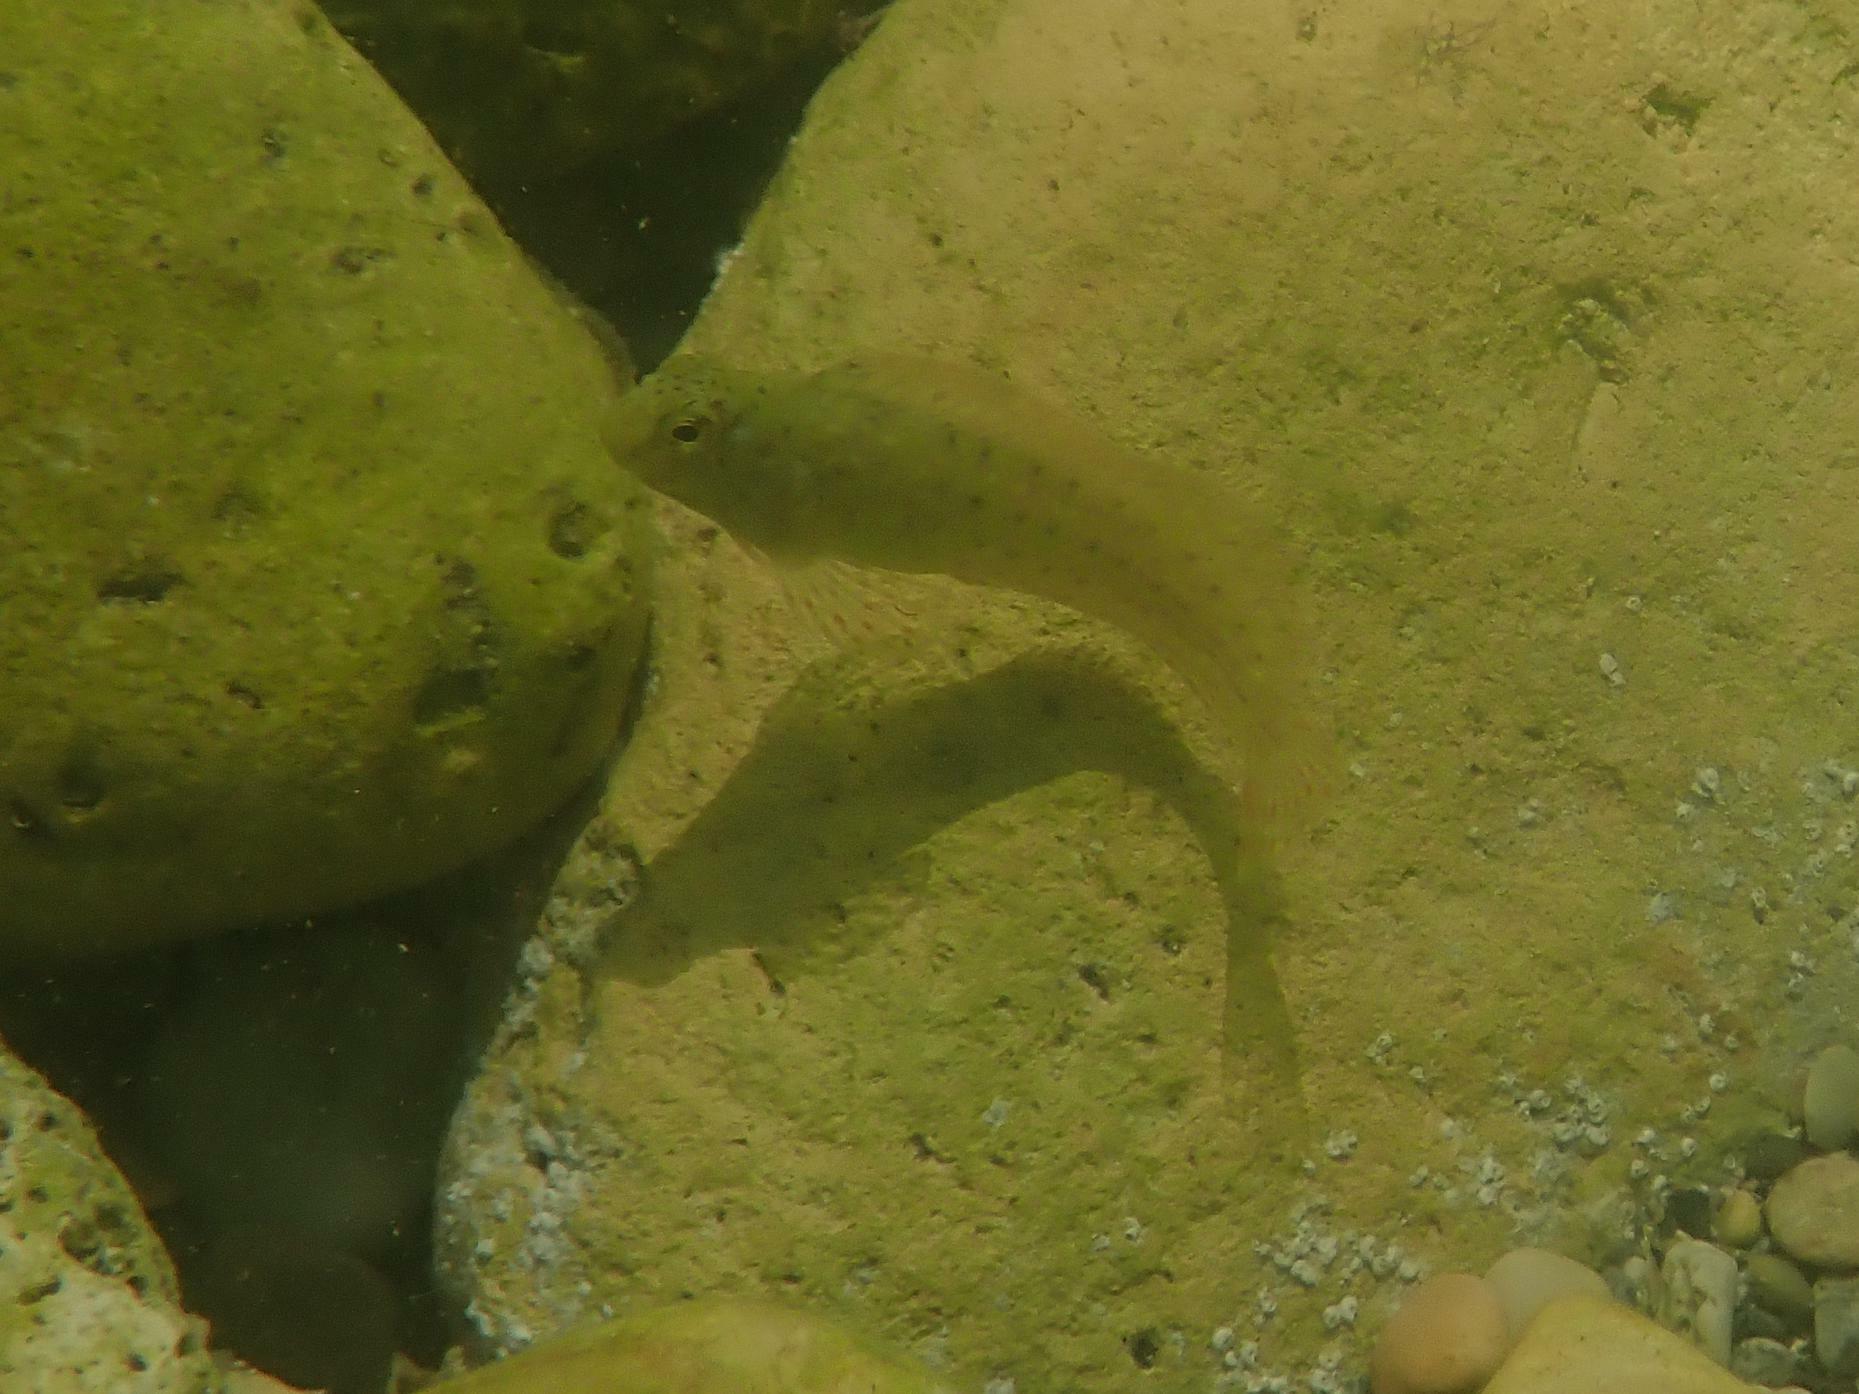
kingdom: Animalia
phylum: Chordata
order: Perciformes
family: Blenniidae
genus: Parablennius
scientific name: Parablennius sanguinolentus
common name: Black sea blenny
